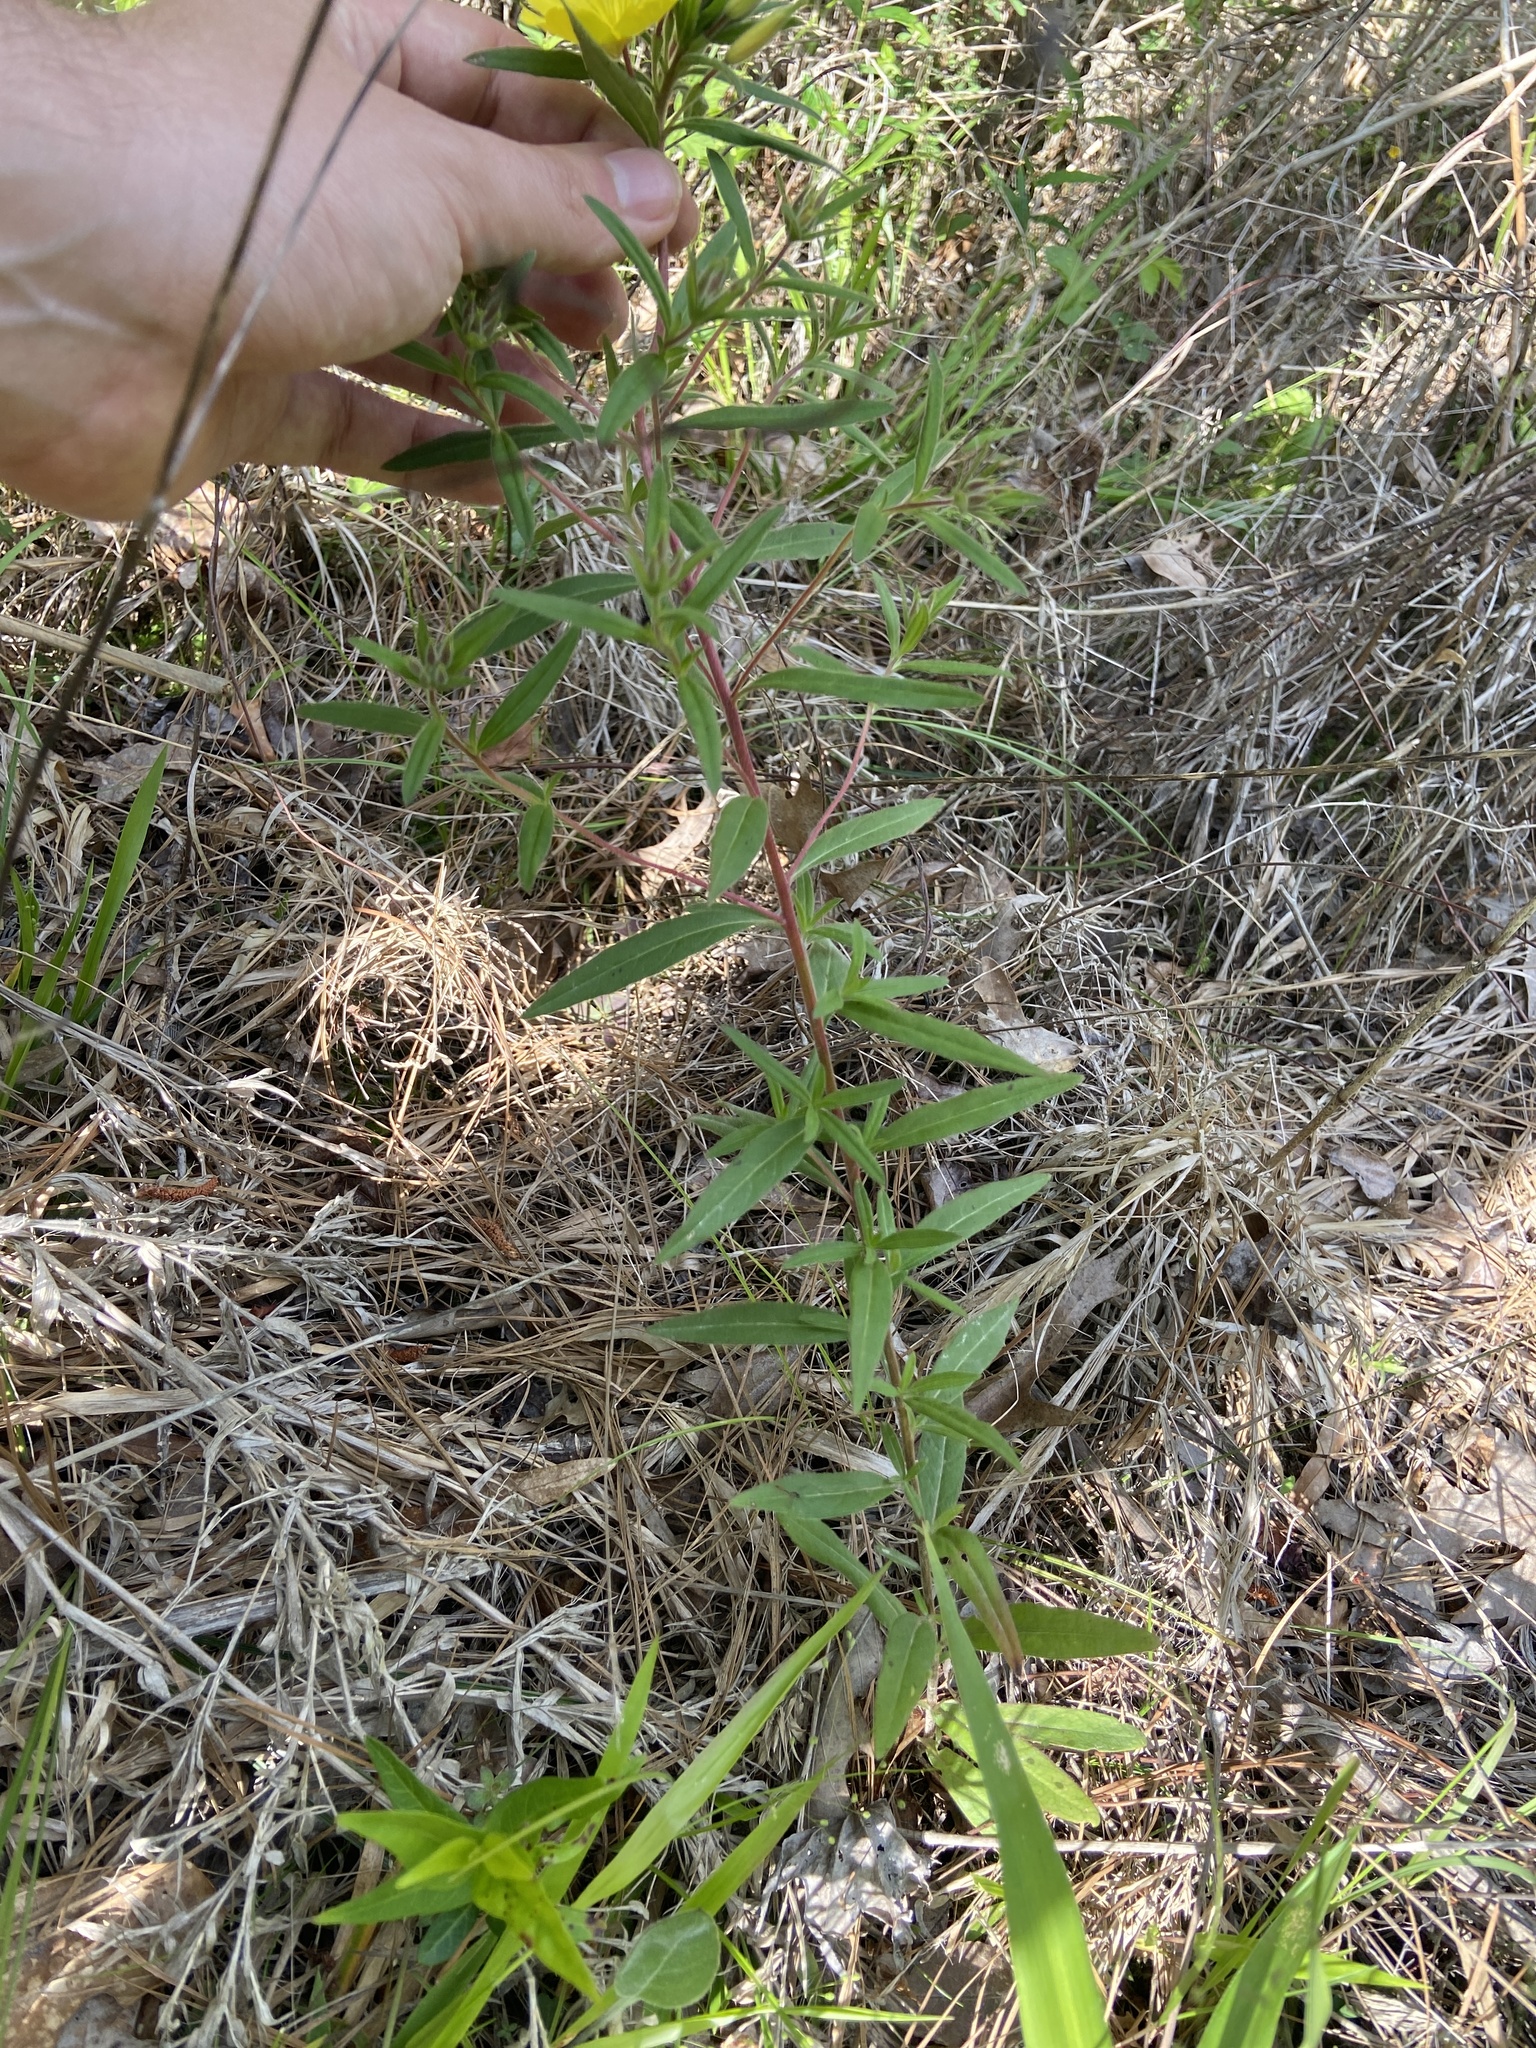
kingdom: Plantae
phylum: Tracheophyta
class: Magnoliopsida
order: Myrtales
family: Onagraceae
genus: Oenothera
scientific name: Oenothera fruticosa
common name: Southern sundrops
